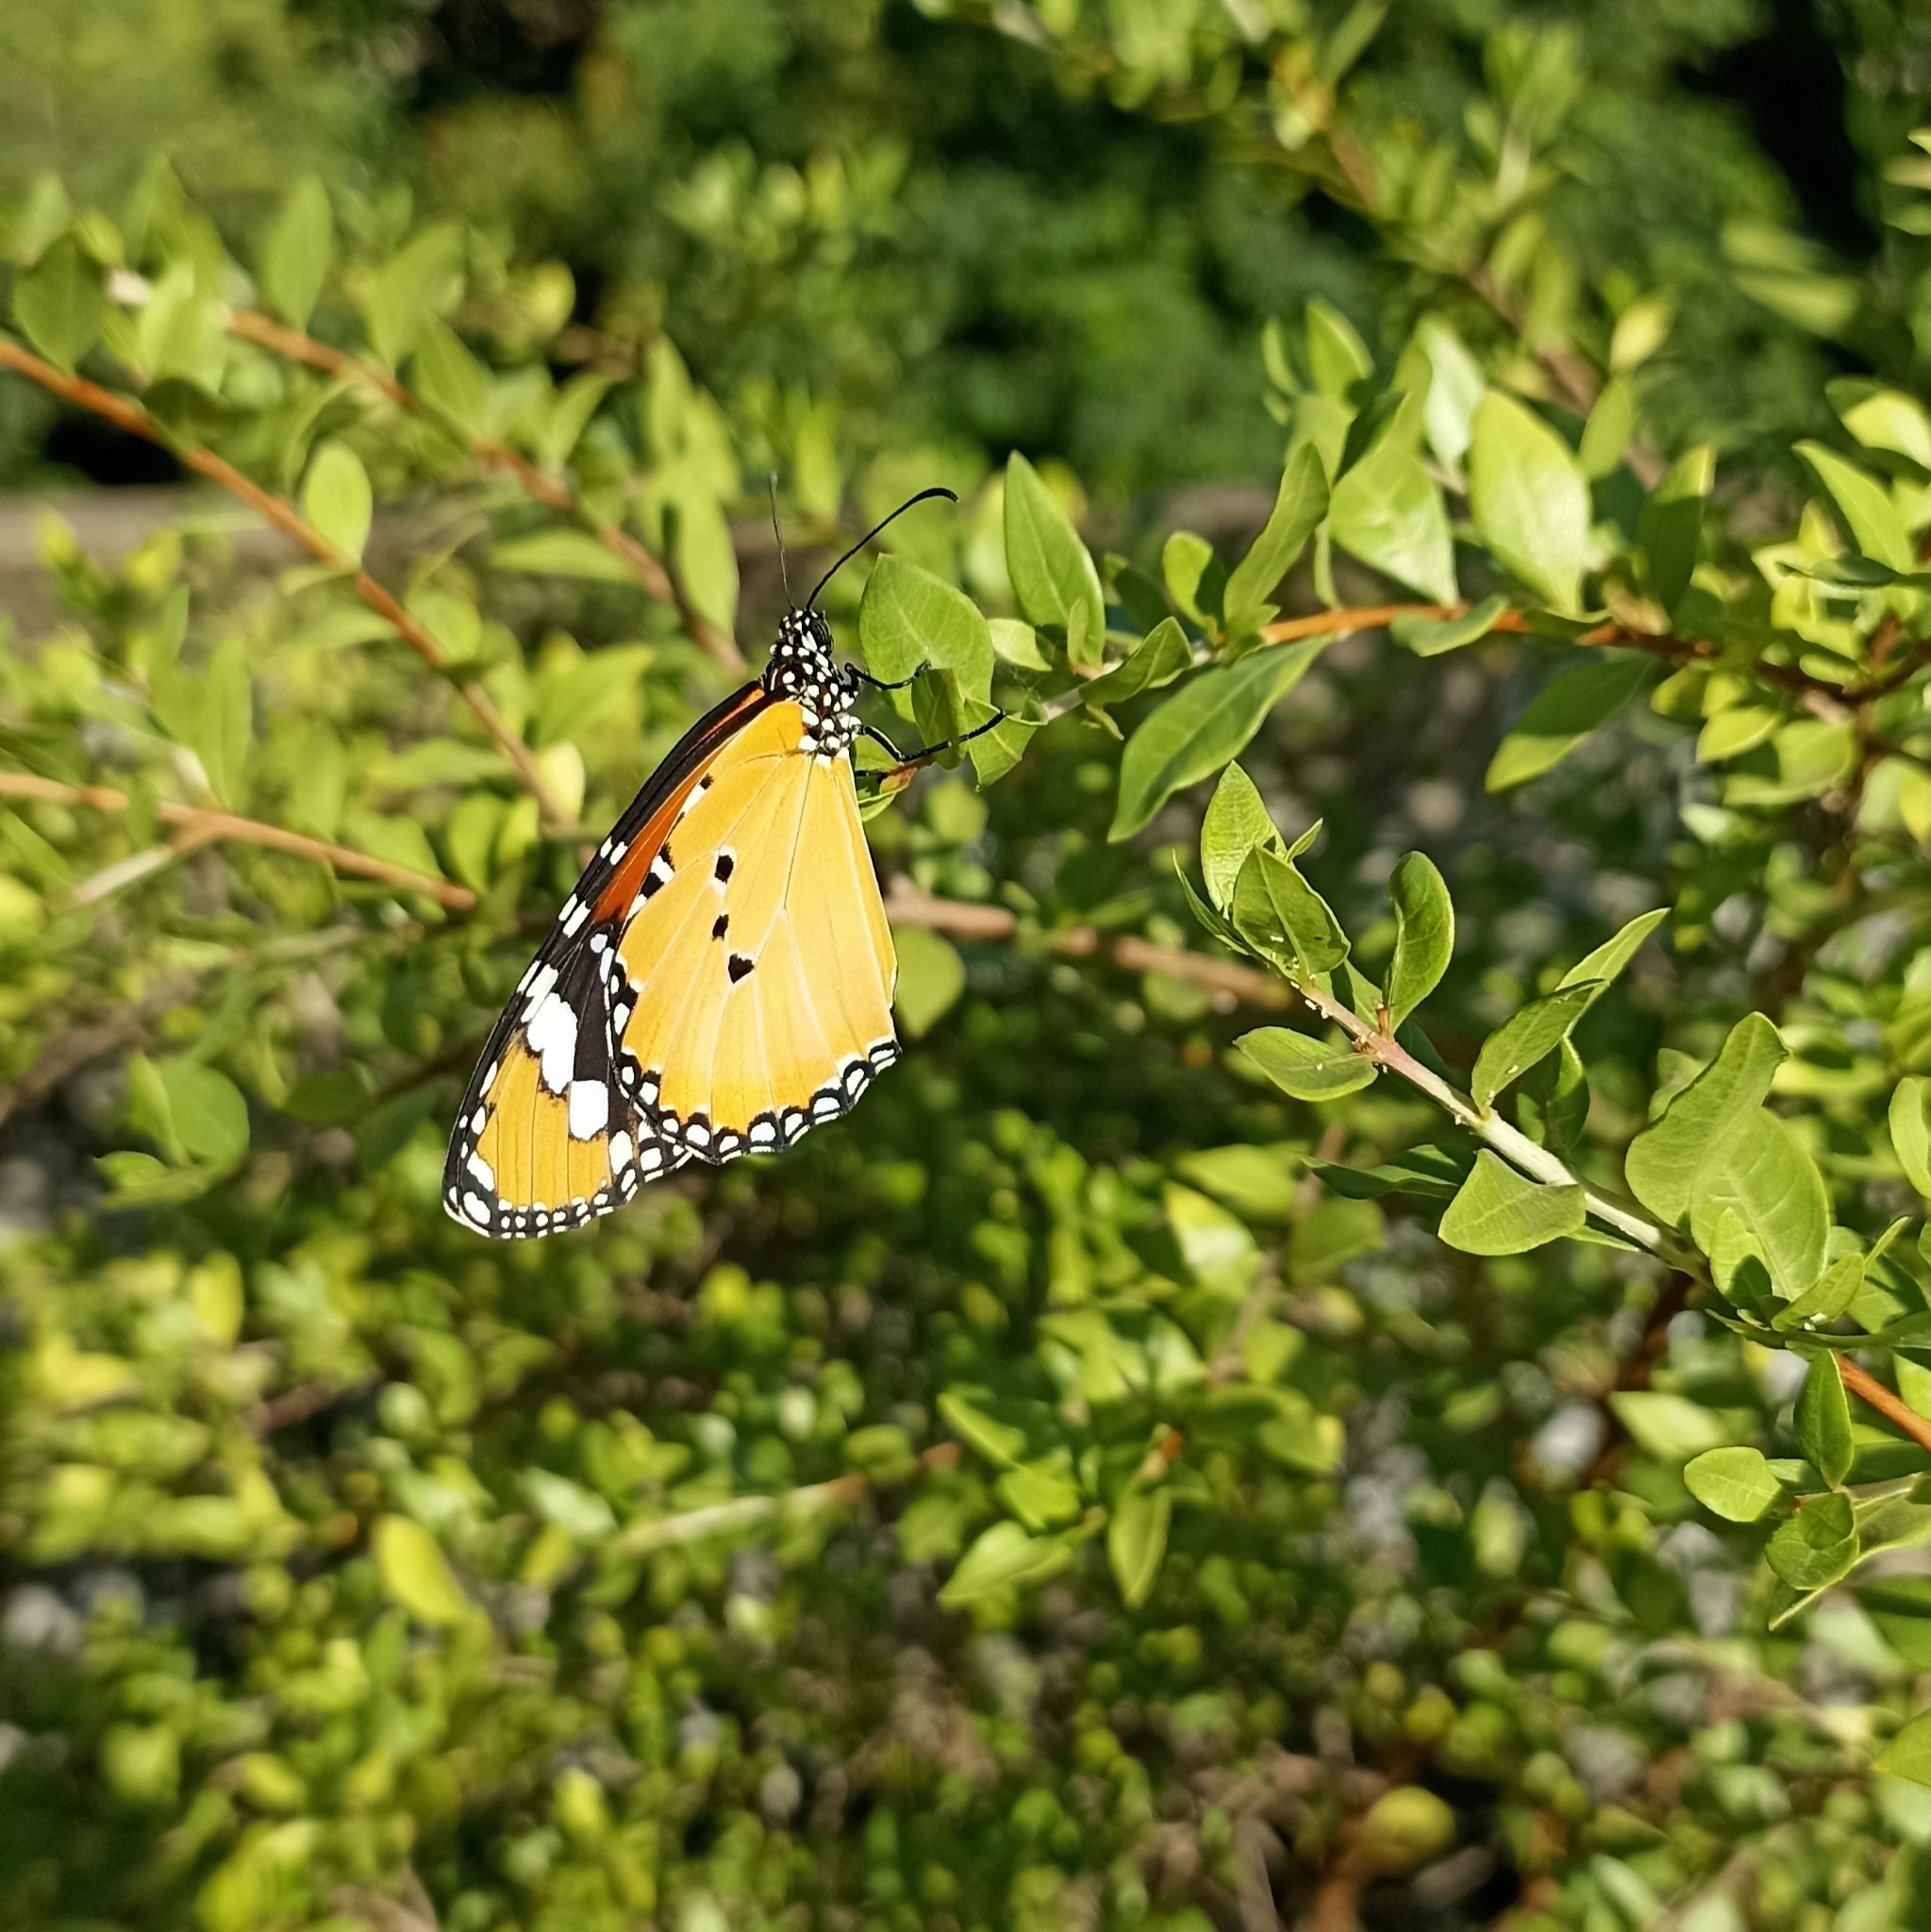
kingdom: Animalia
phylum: Arthropoda
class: Insecta
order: Lepidoptera
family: Nymphalidae
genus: Danaus
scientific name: Danaus chrysippus
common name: Plain tiger
